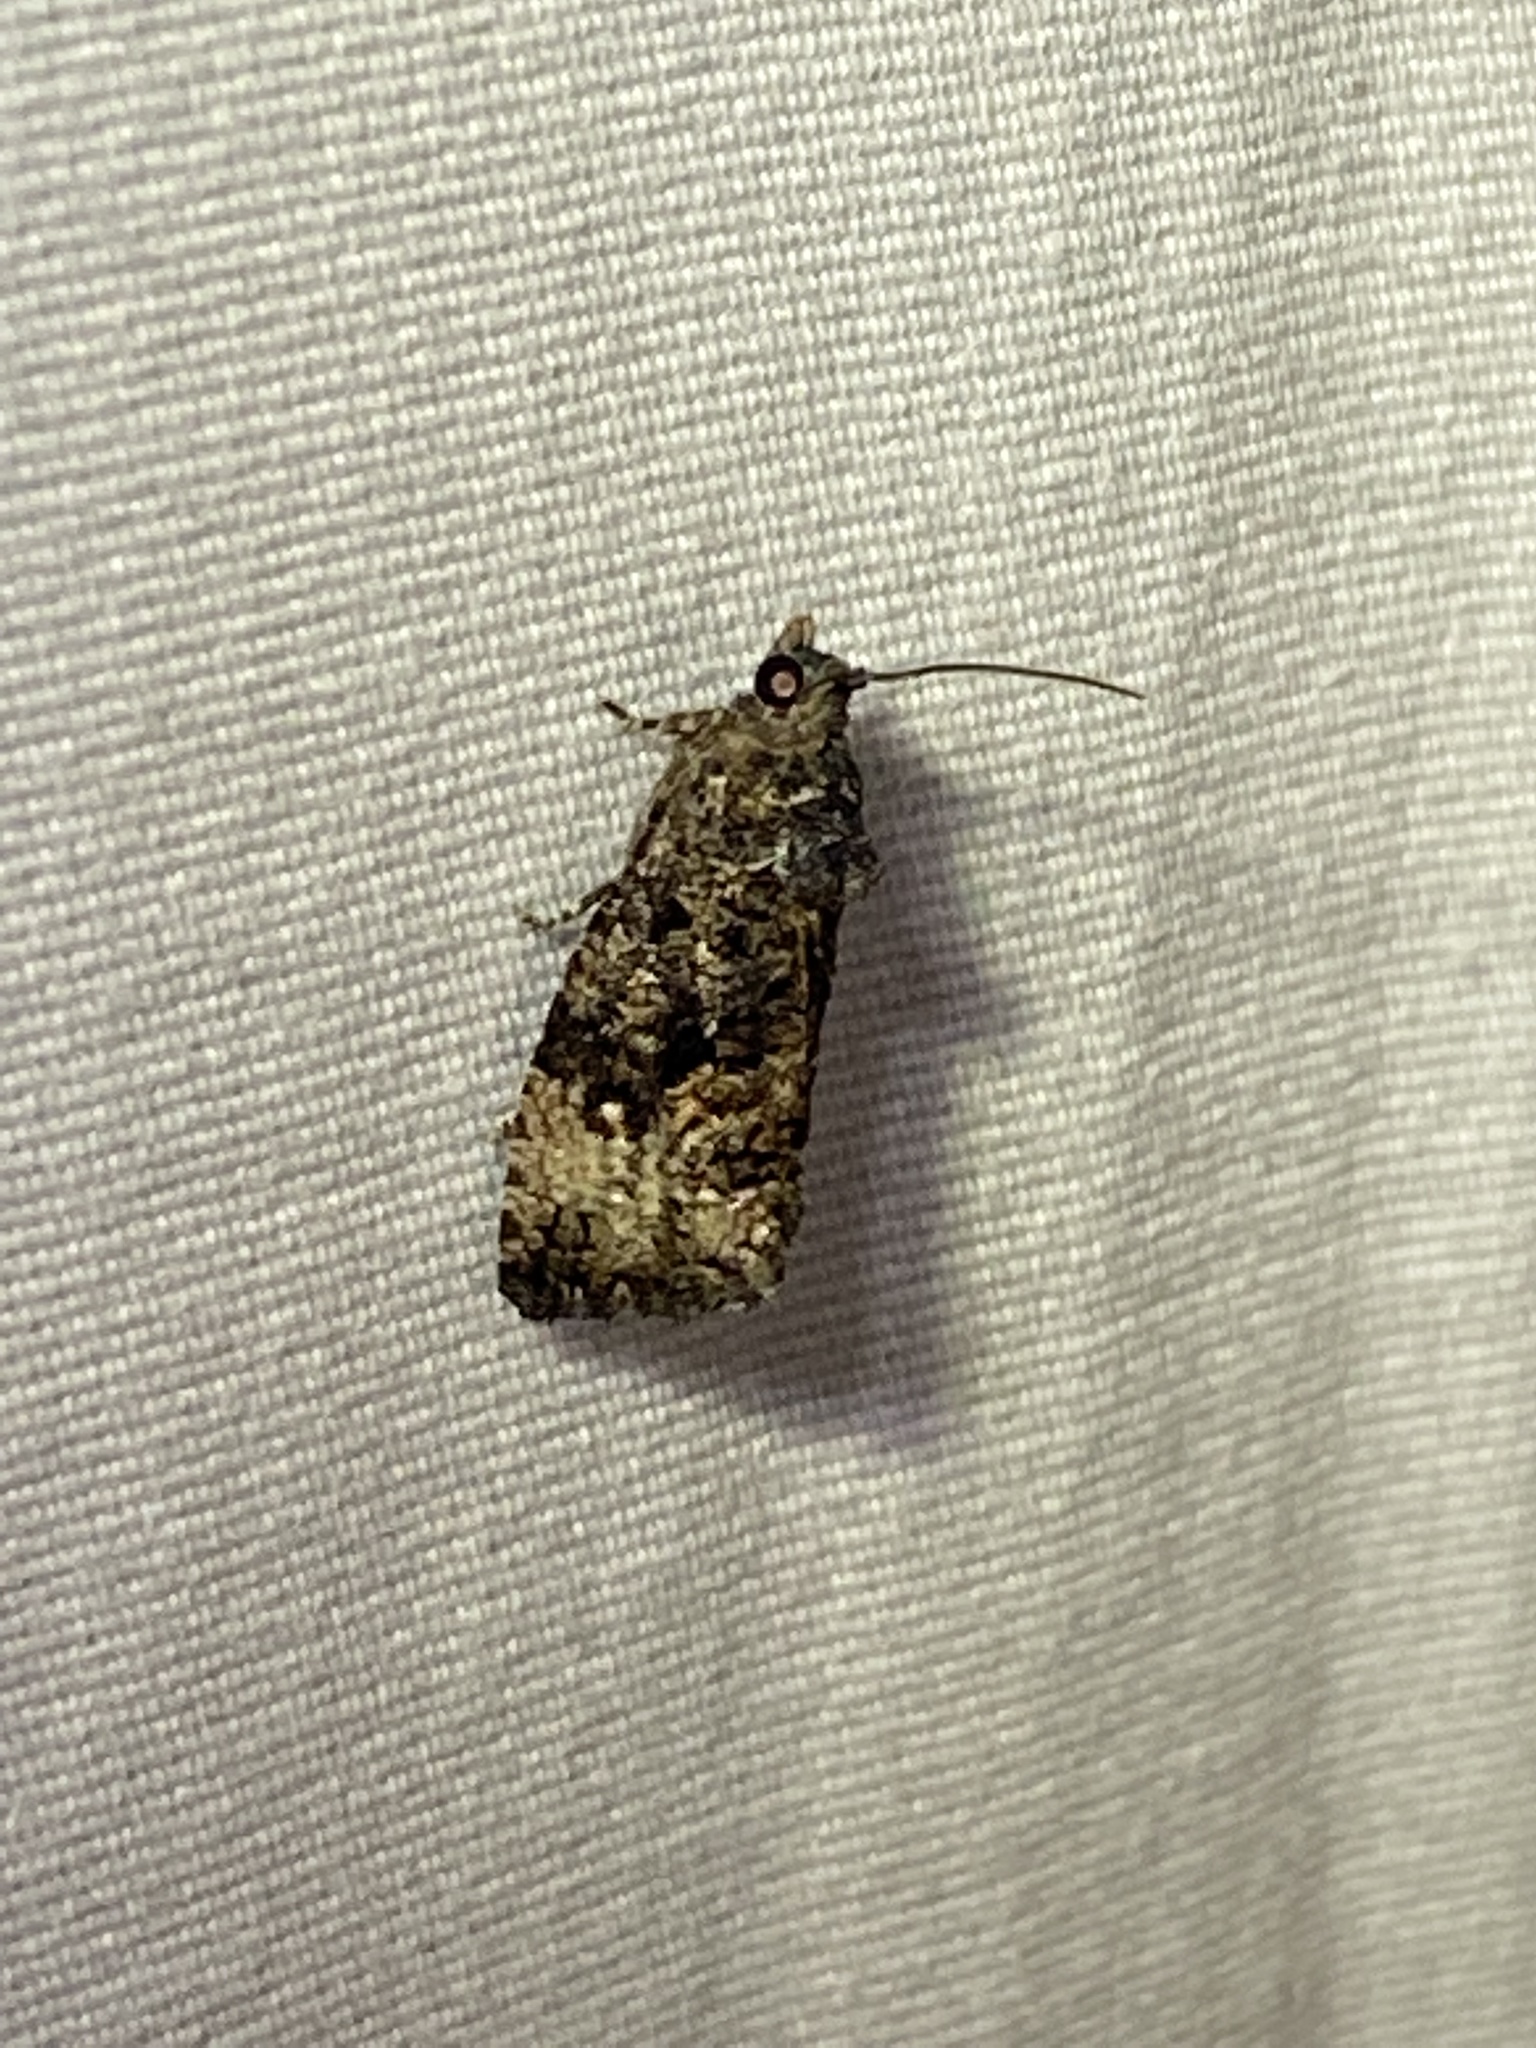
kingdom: Animalia
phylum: Arthropoda
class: Insecta
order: Lepidoptera
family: Tortricidae
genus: Gymnandrosoma
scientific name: Gymnandrosoma punctidiscanum
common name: Dotted ecdytolopha moth
